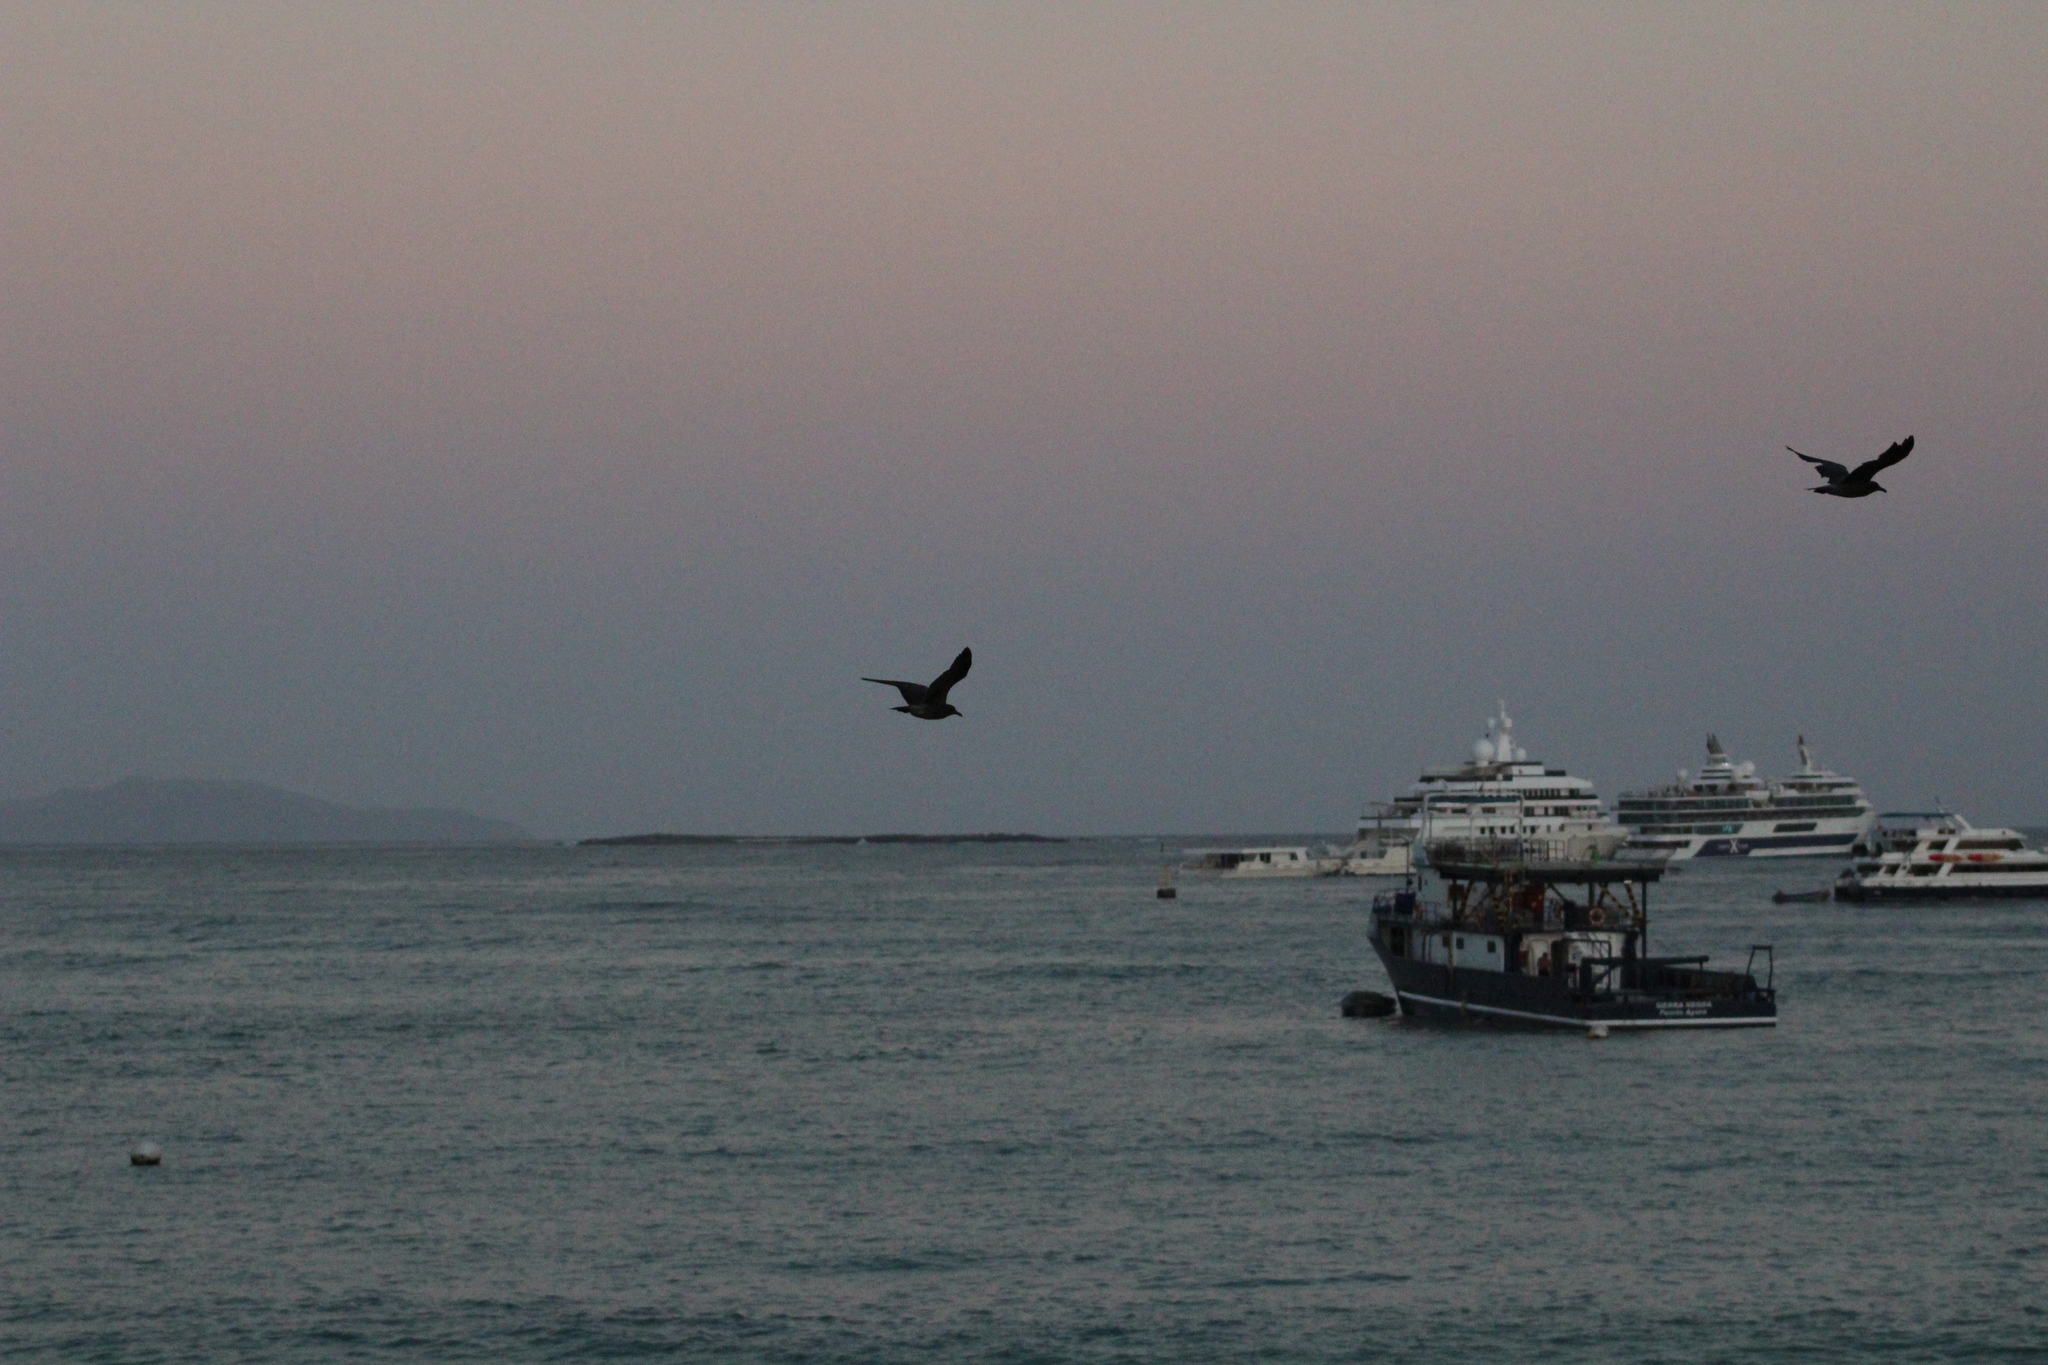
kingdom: Animalia
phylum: Chordata
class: Aves
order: Charadriiformes
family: Laridae
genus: Leucophaeus
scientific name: Leucophaeus fuliginosus
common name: Lava gull
